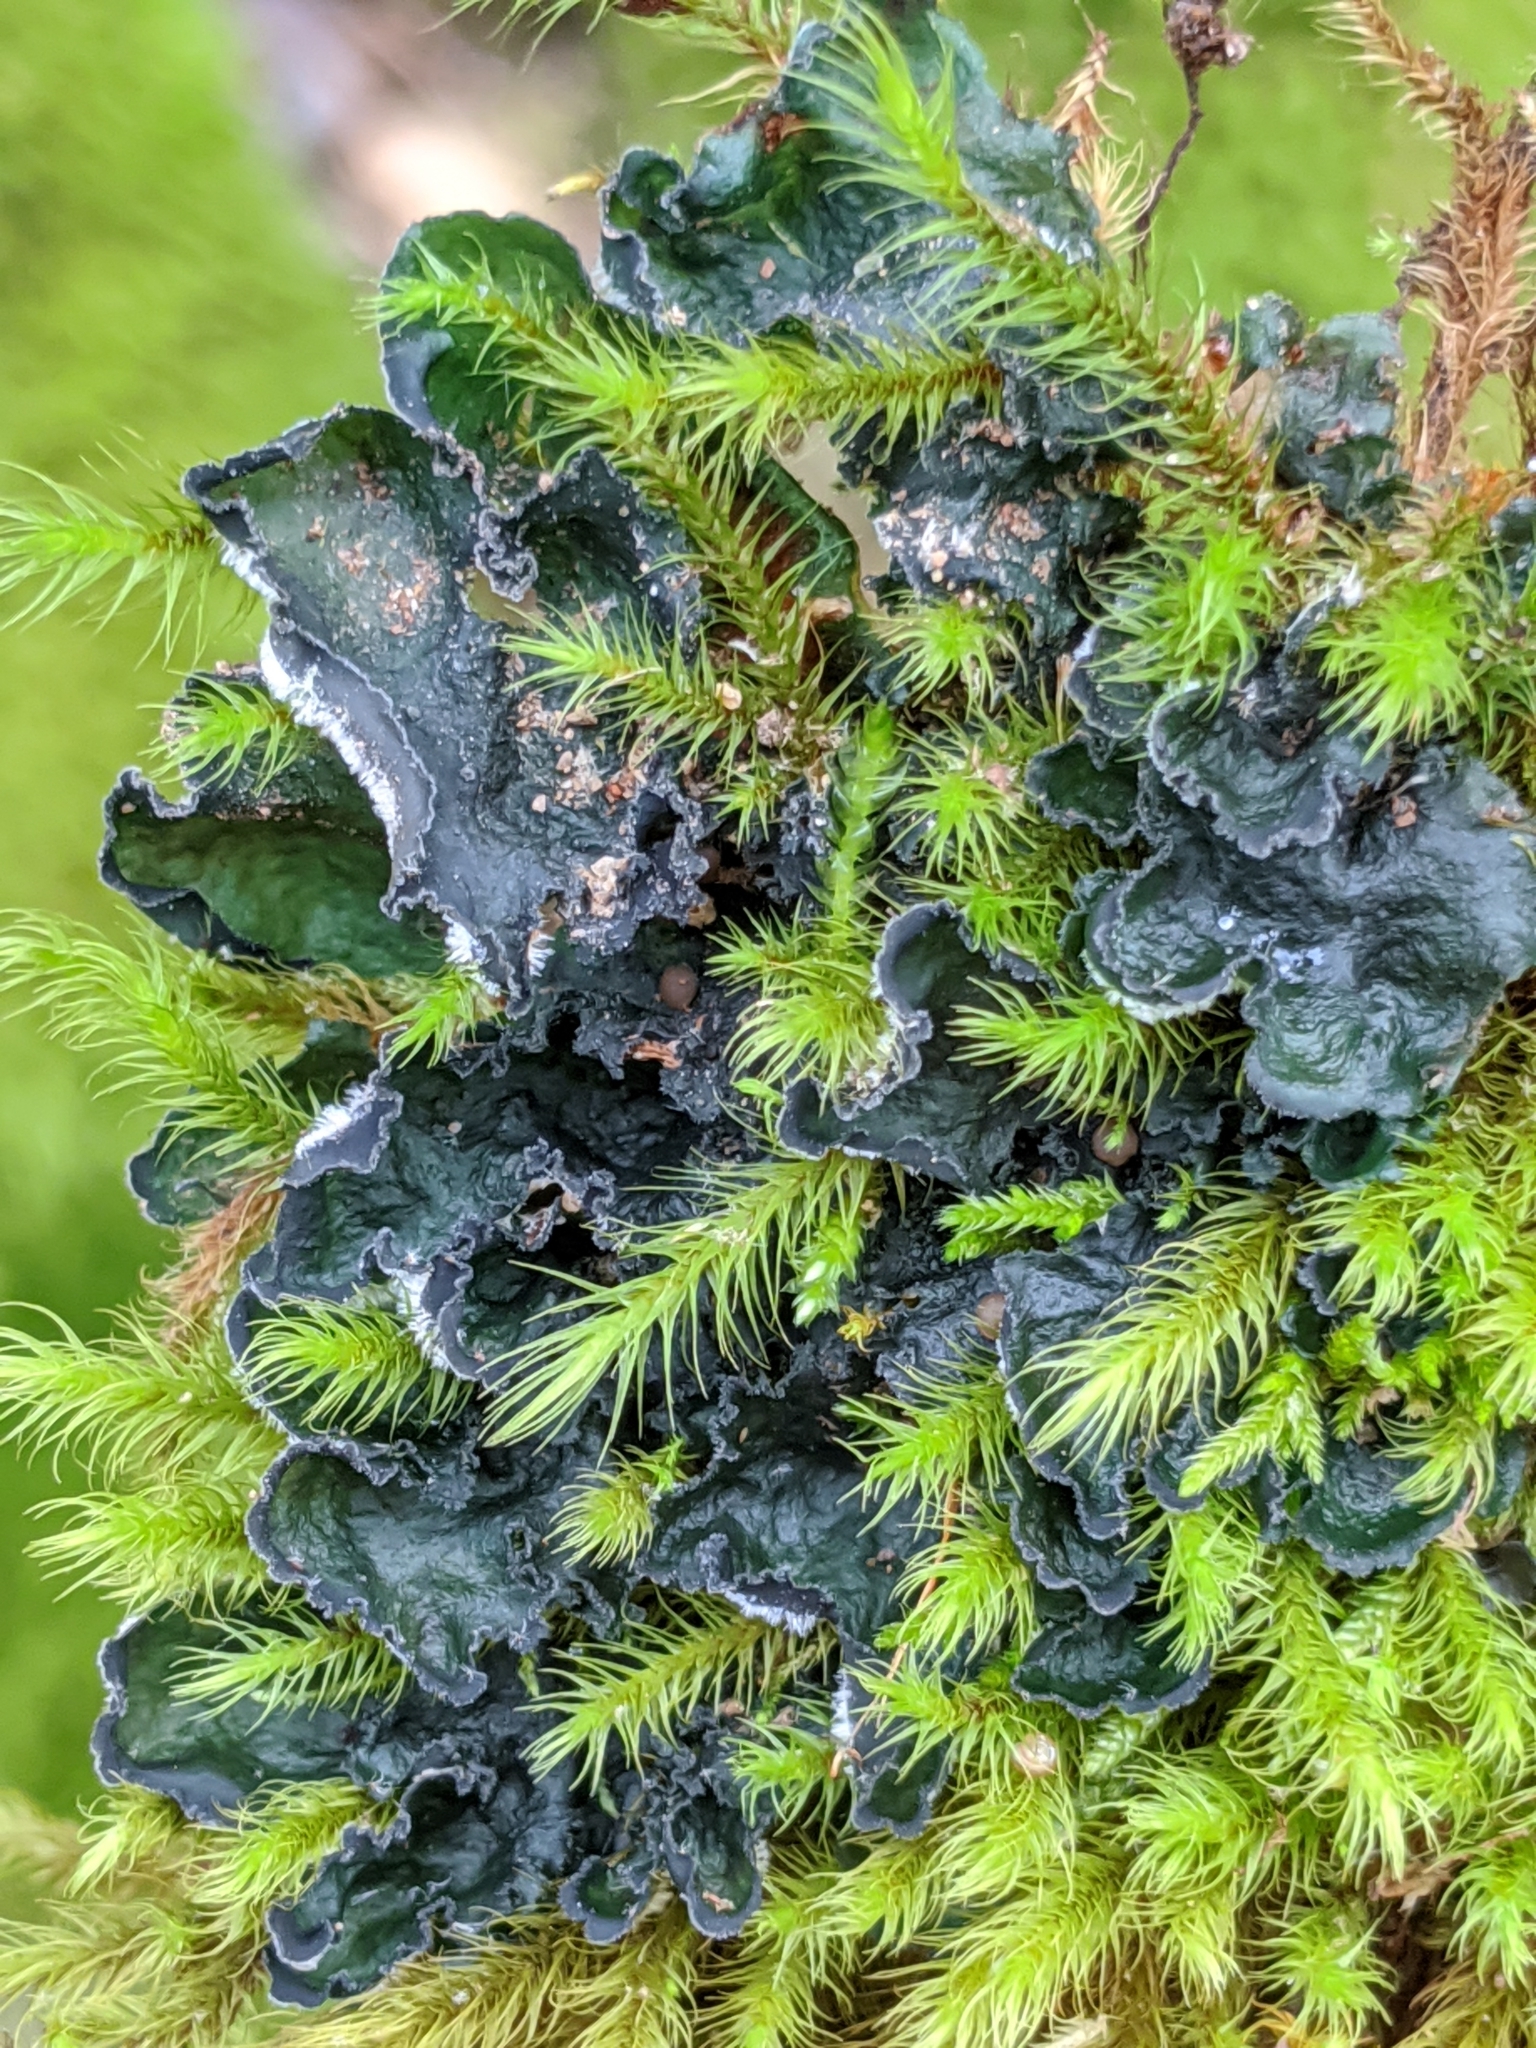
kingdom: Fungi
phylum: Ascomycota
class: Lecanoromycetes
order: Peltigerales
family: Massalongiaceae
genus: Leptochidium
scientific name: Leptochidium albociliatum
